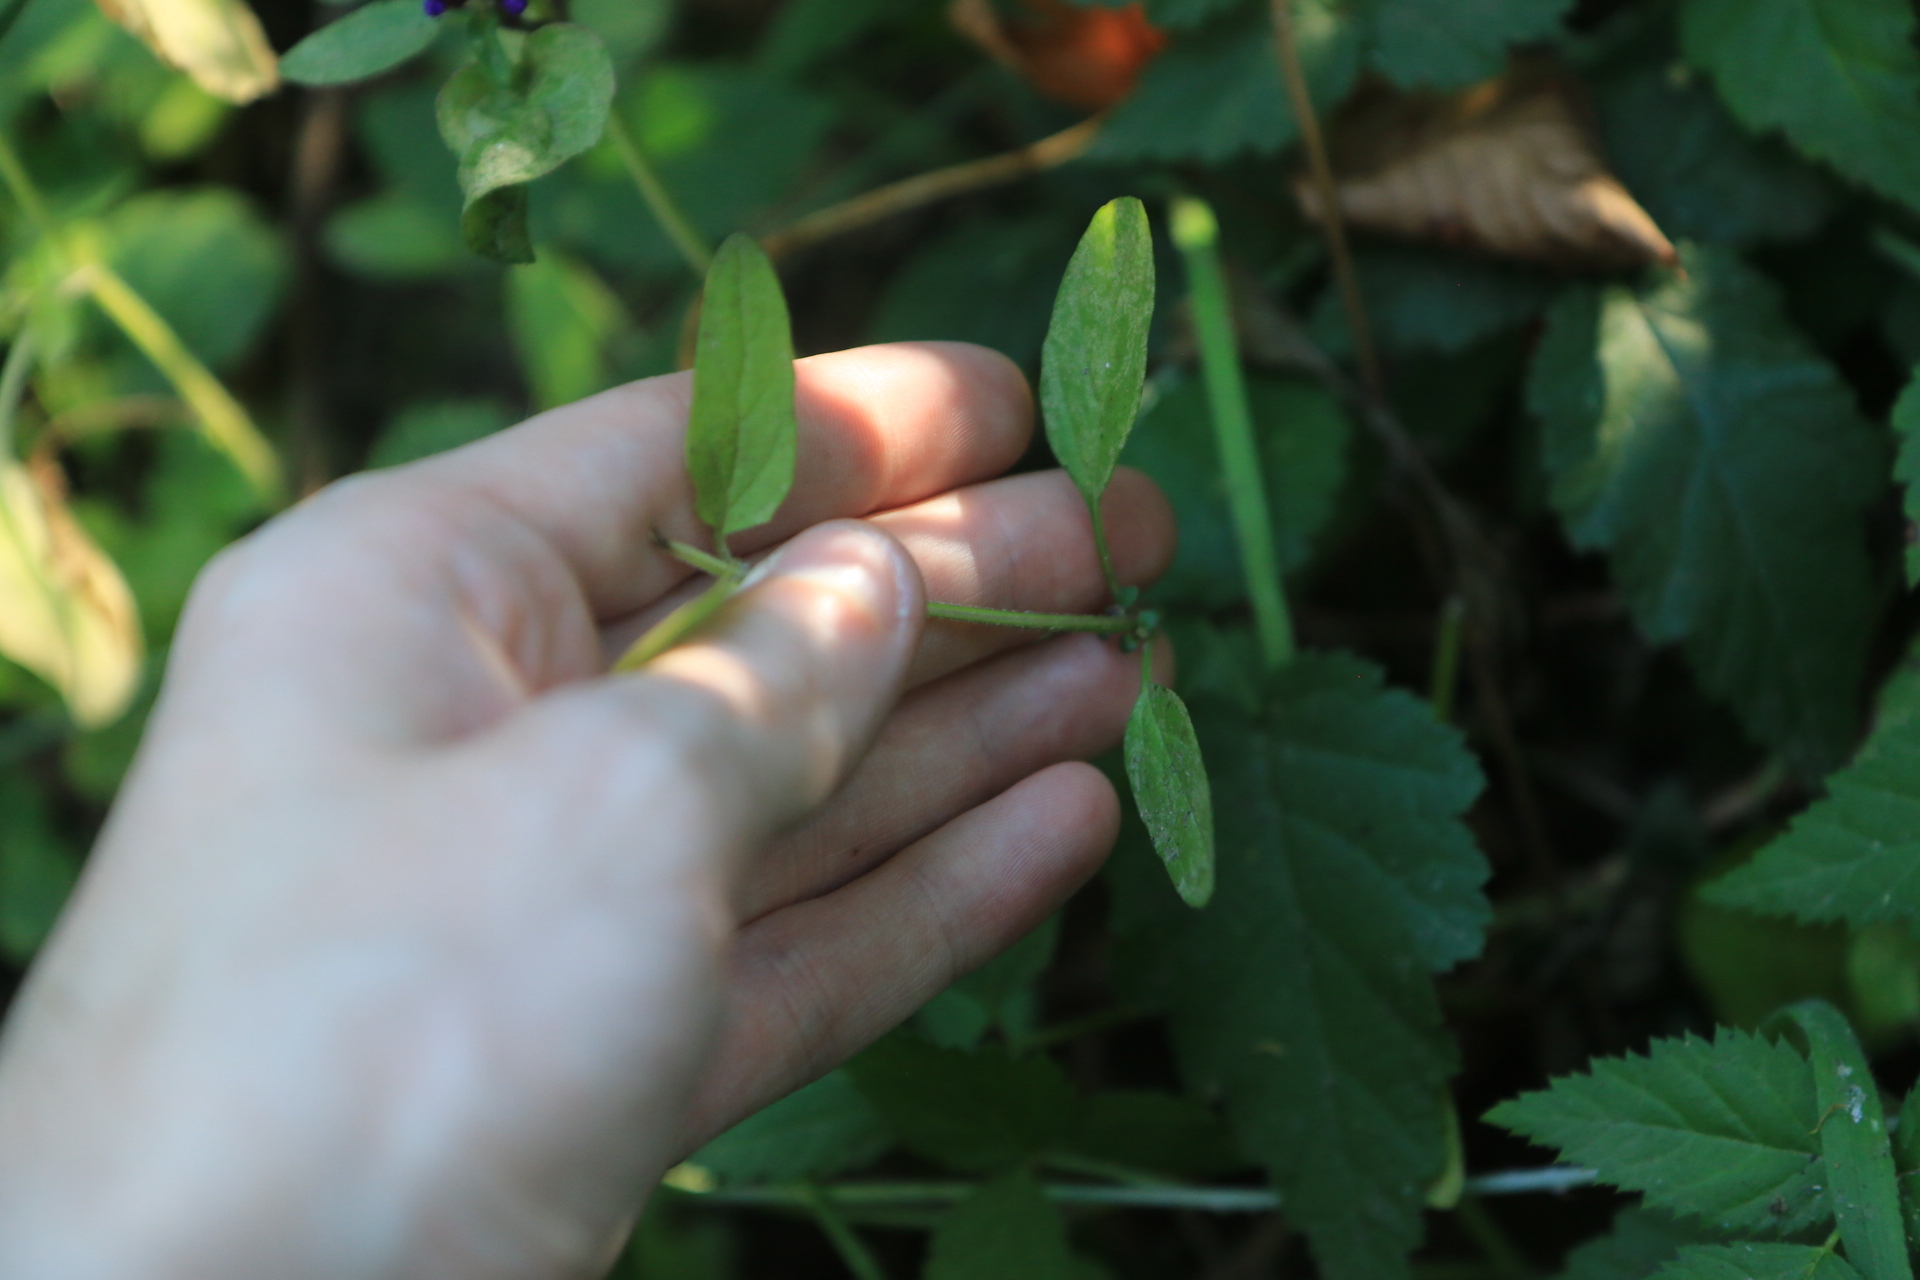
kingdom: Plantae
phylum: Tracheophyta
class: Magnoliopsida
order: Lamiales
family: Lamiaceae
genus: Prunella
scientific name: Prunella vulgaris
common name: Heal-all
